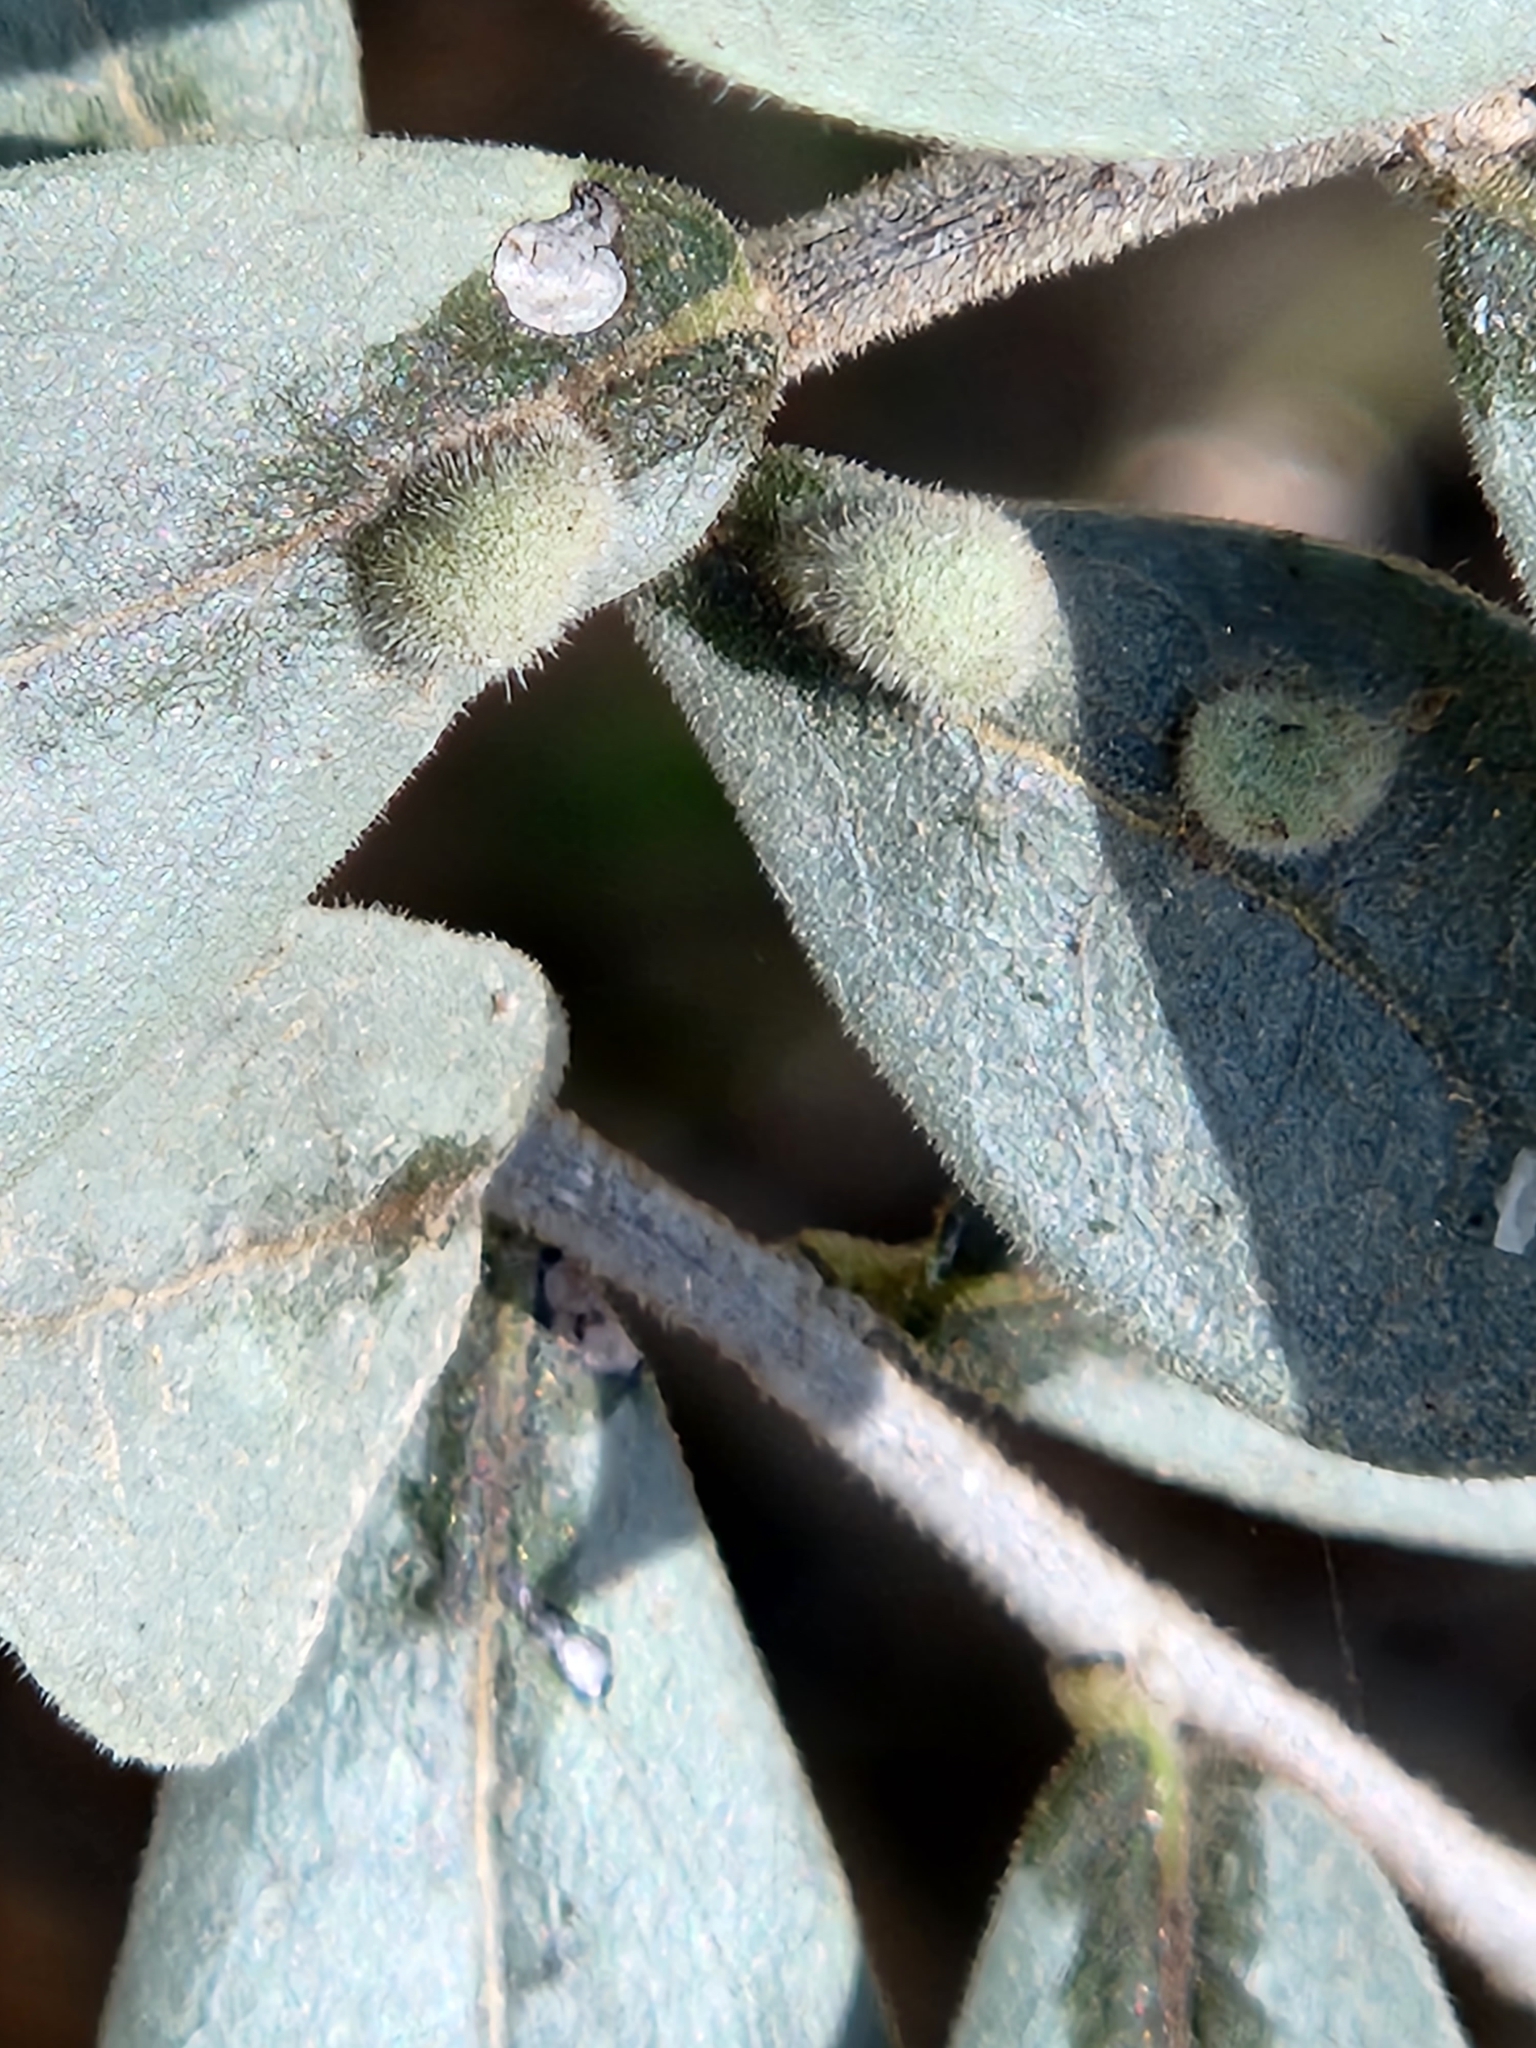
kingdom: Animalia
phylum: Arthropoda
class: Arachnida
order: Trombidiformes
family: Eriophyidae
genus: Aceria
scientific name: Aceria
